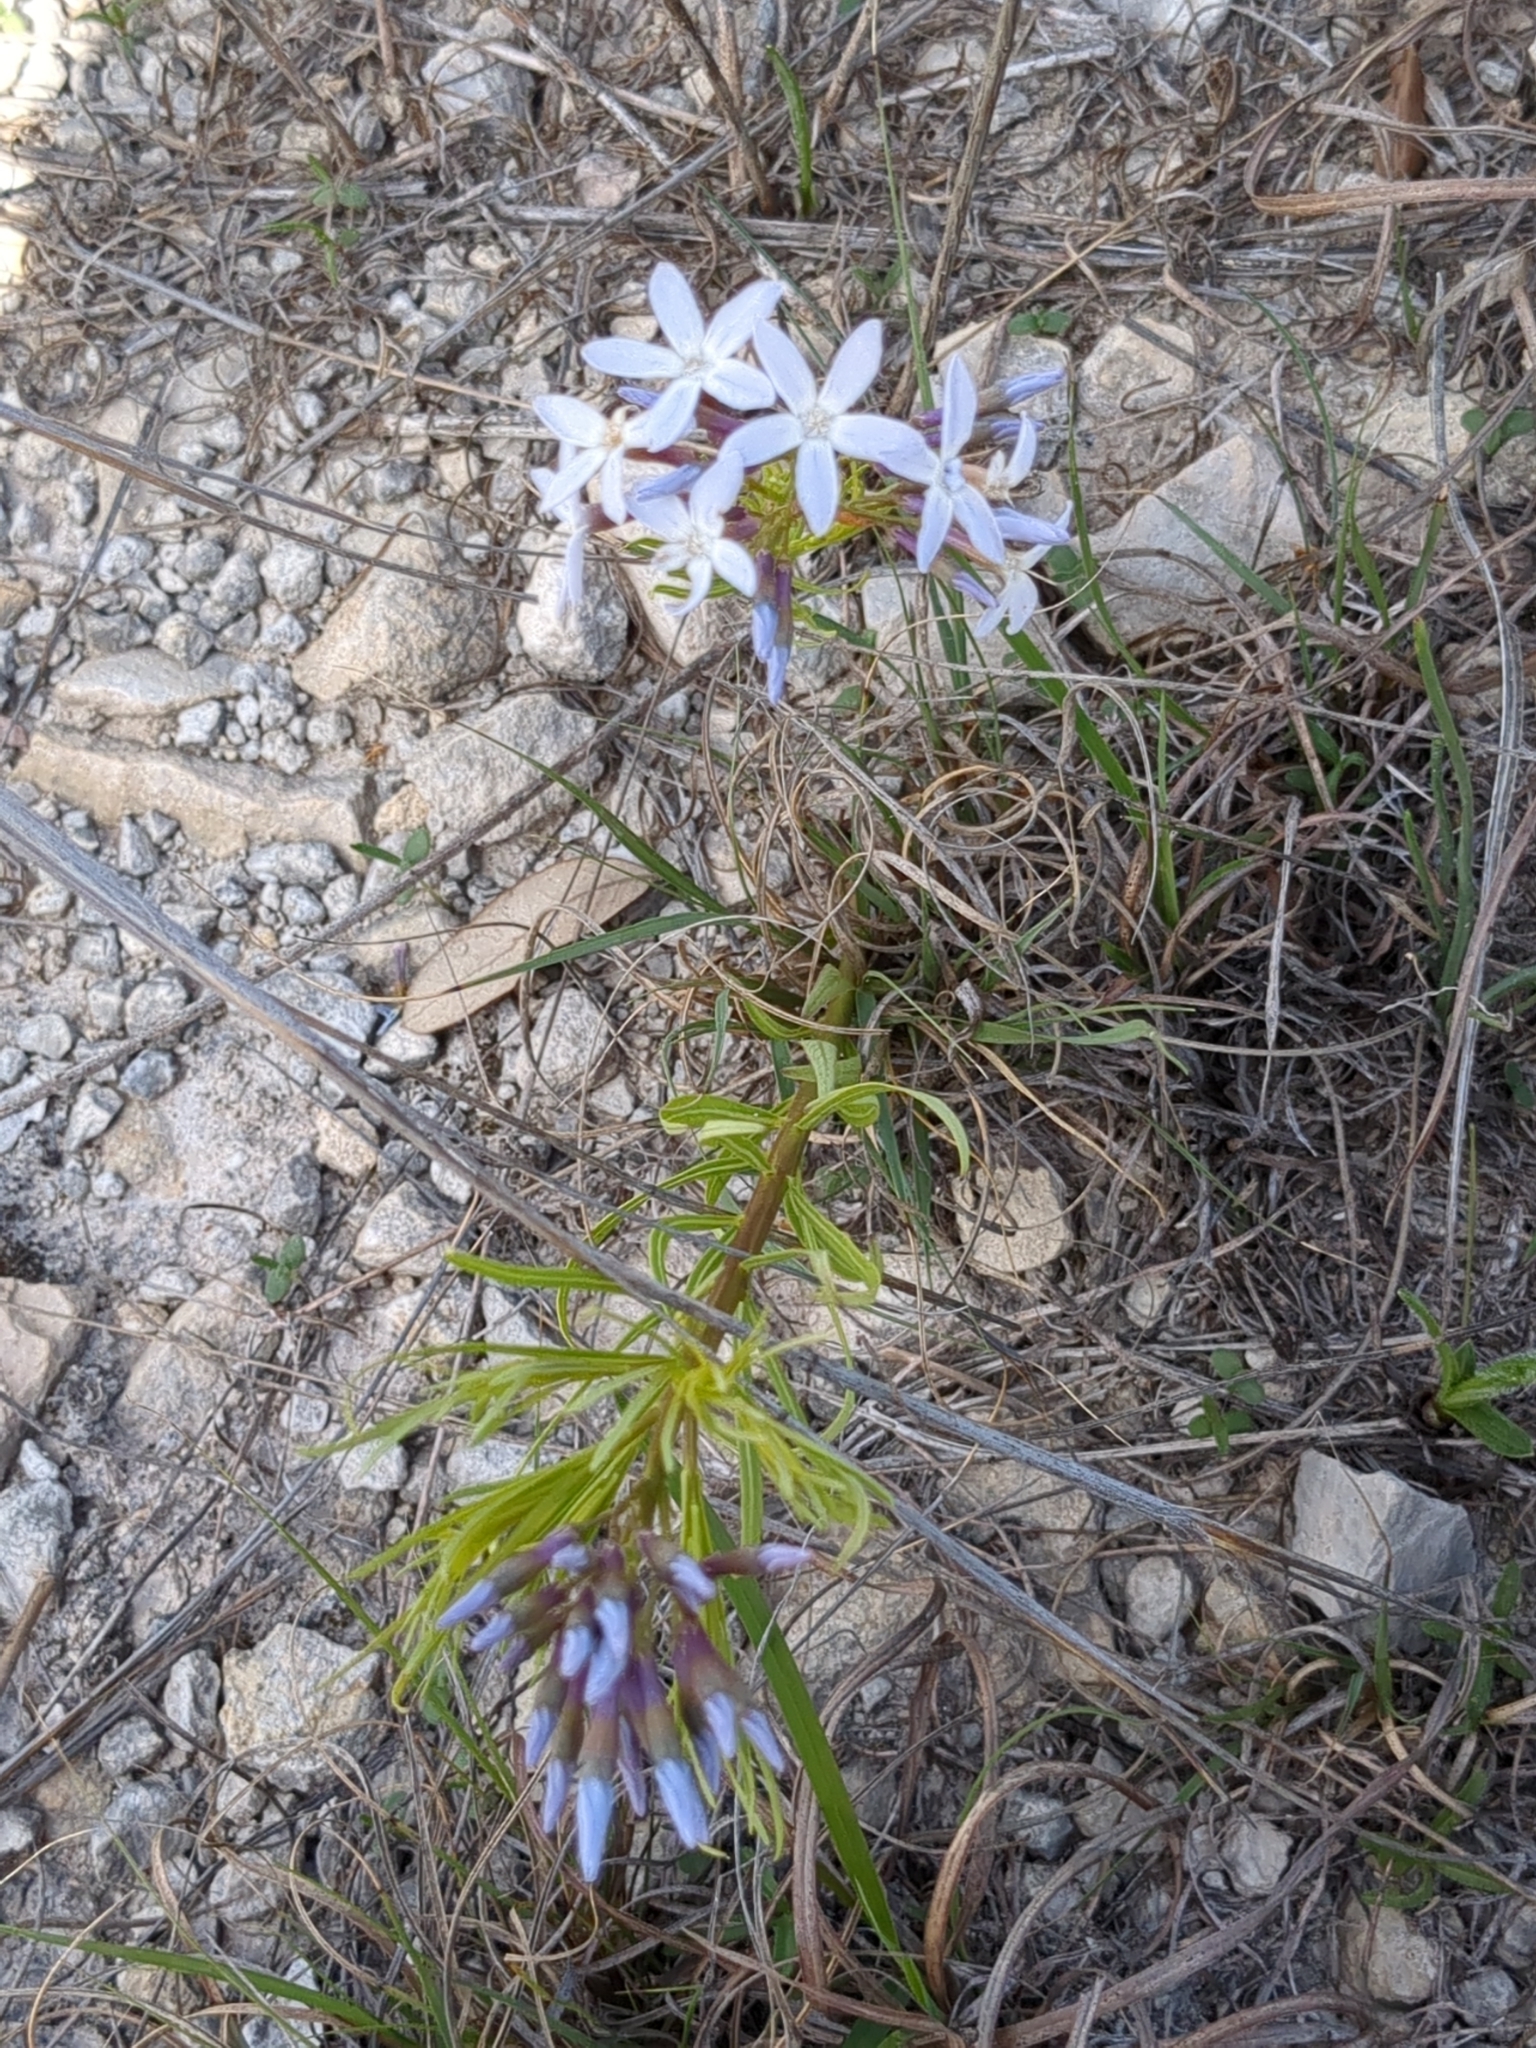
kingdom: Plantae
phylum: Tracheophyta
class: Magnoliopsida
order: Gentianales
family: Apocynaceae
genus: Amsonia
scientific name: Amsonia ciliata
